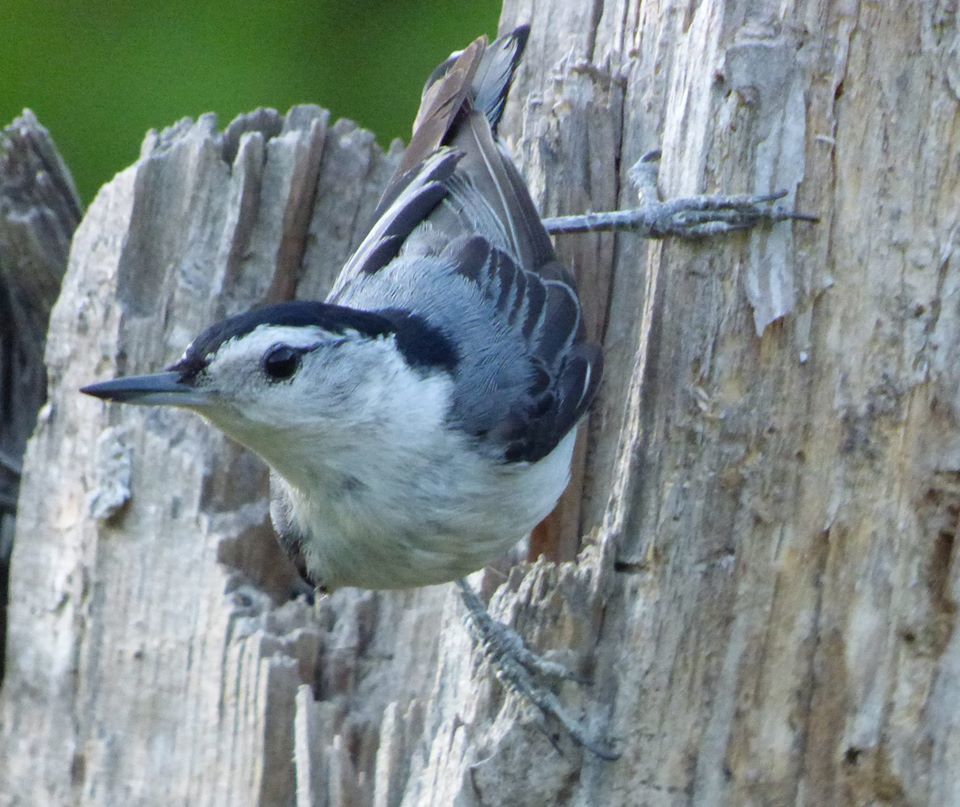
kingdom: Animalia
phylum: Chordata
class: Aves
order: Passeriformes
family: Sittidae
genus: Sitta
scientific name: Sitta carolinensis
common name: White-breasted nuthatch
